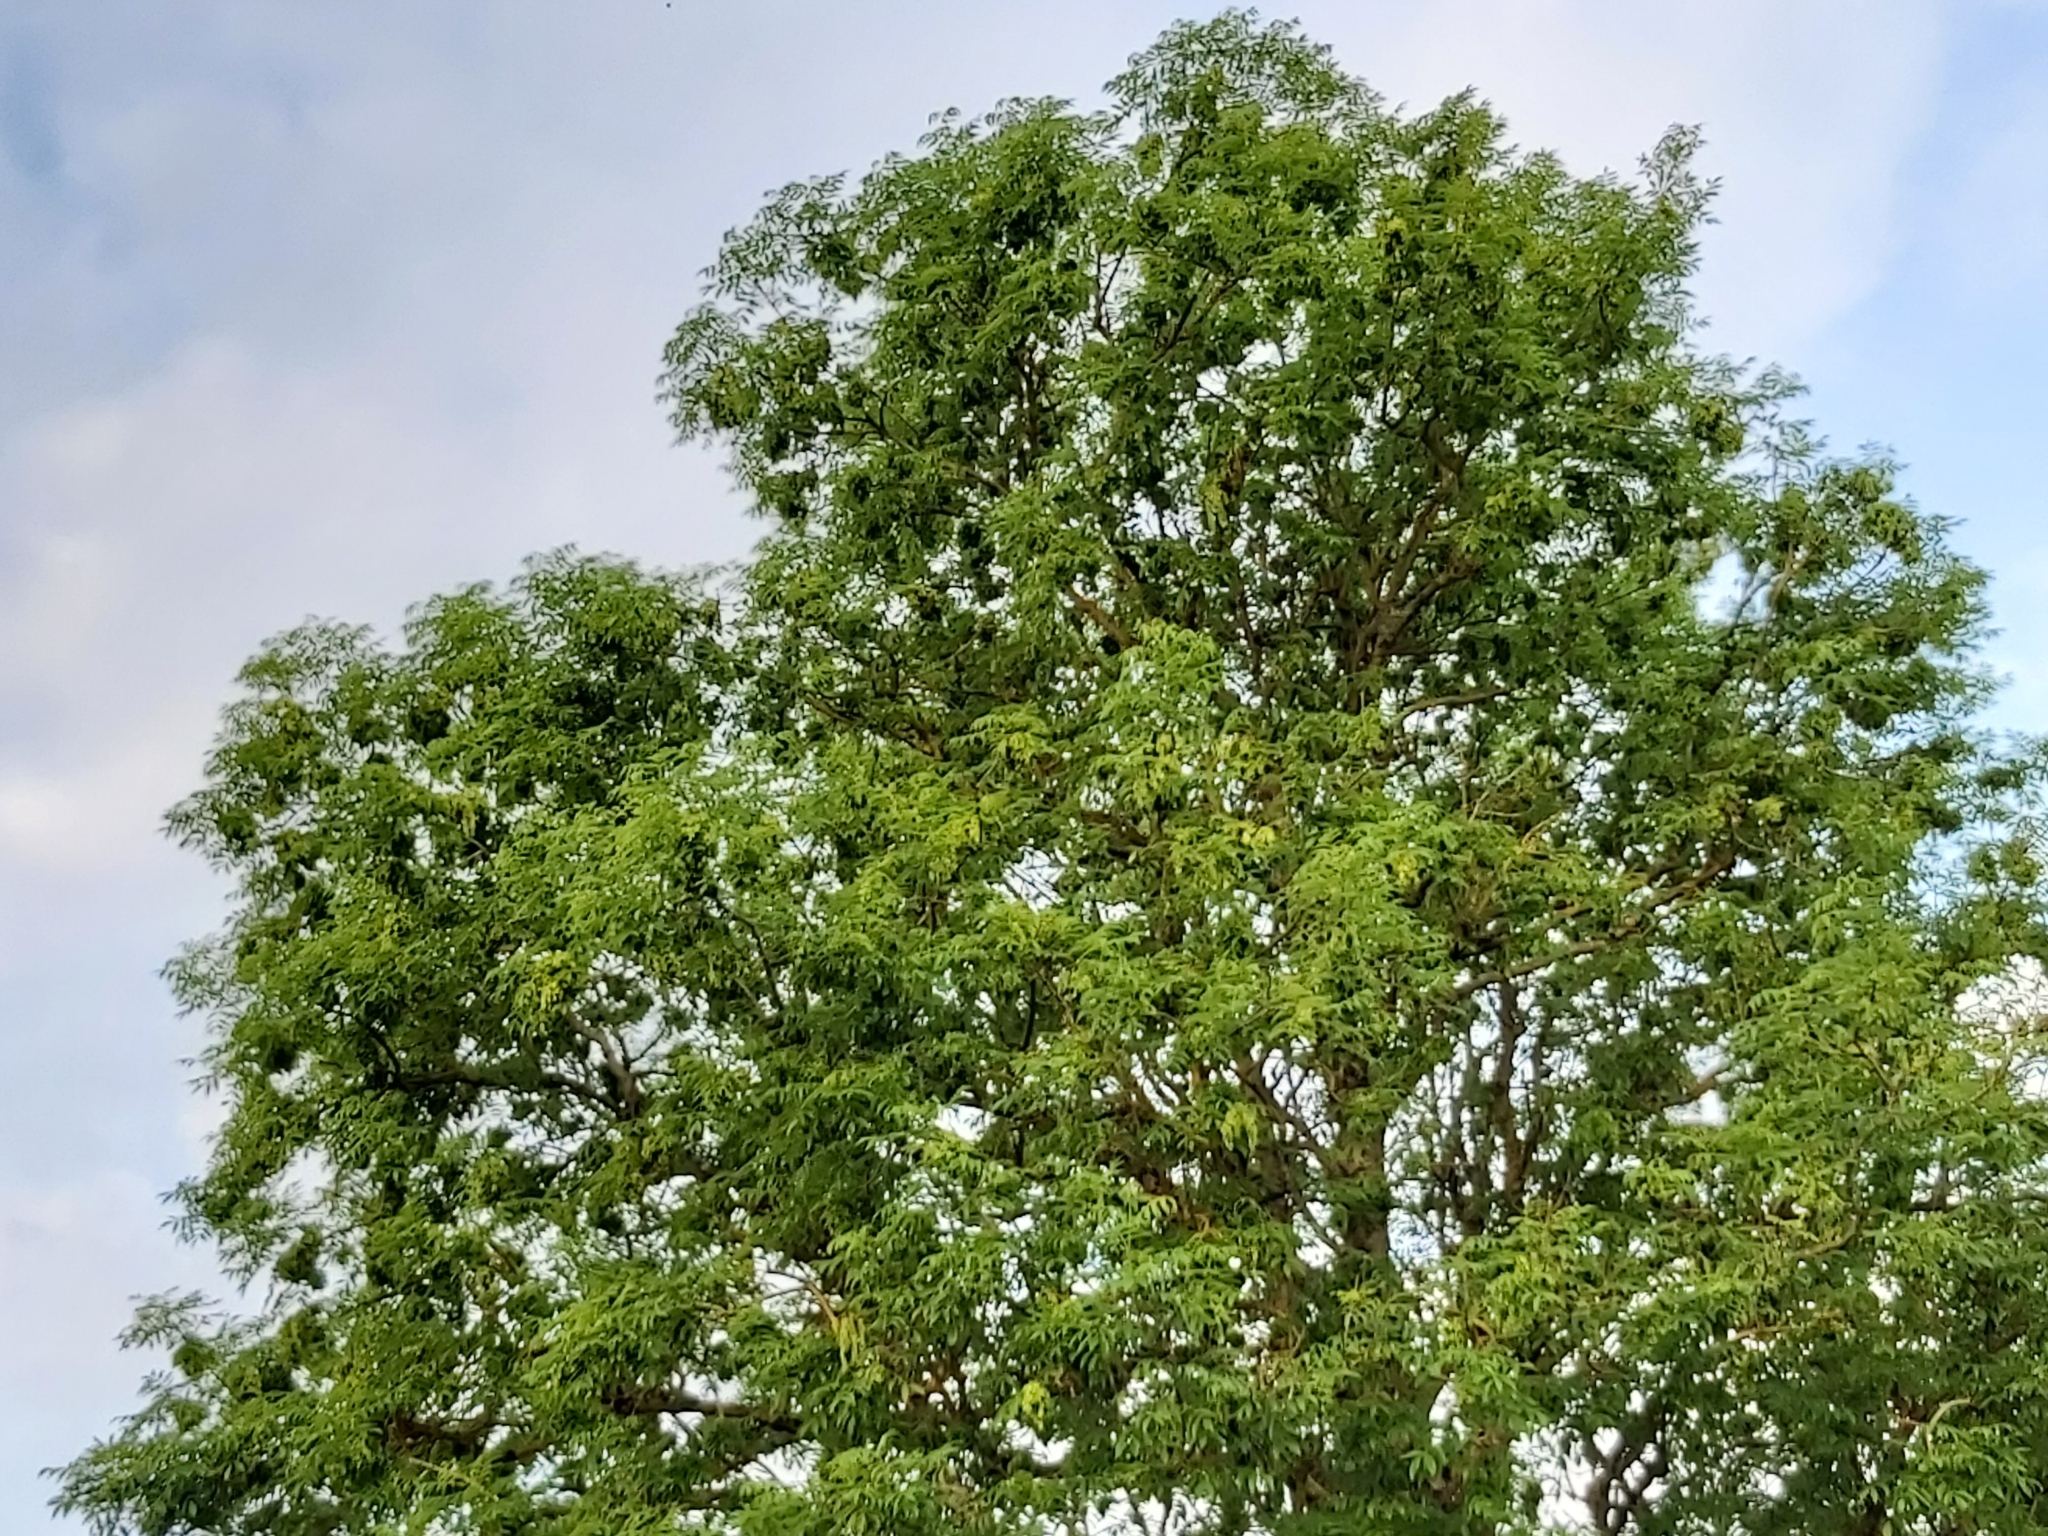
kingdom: Animalia
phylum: Chordata
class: Aves
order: Passeriformes
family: Sylviidae
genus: Sylvia
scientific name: Sylvia curruca
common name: Lesser whitethroat
